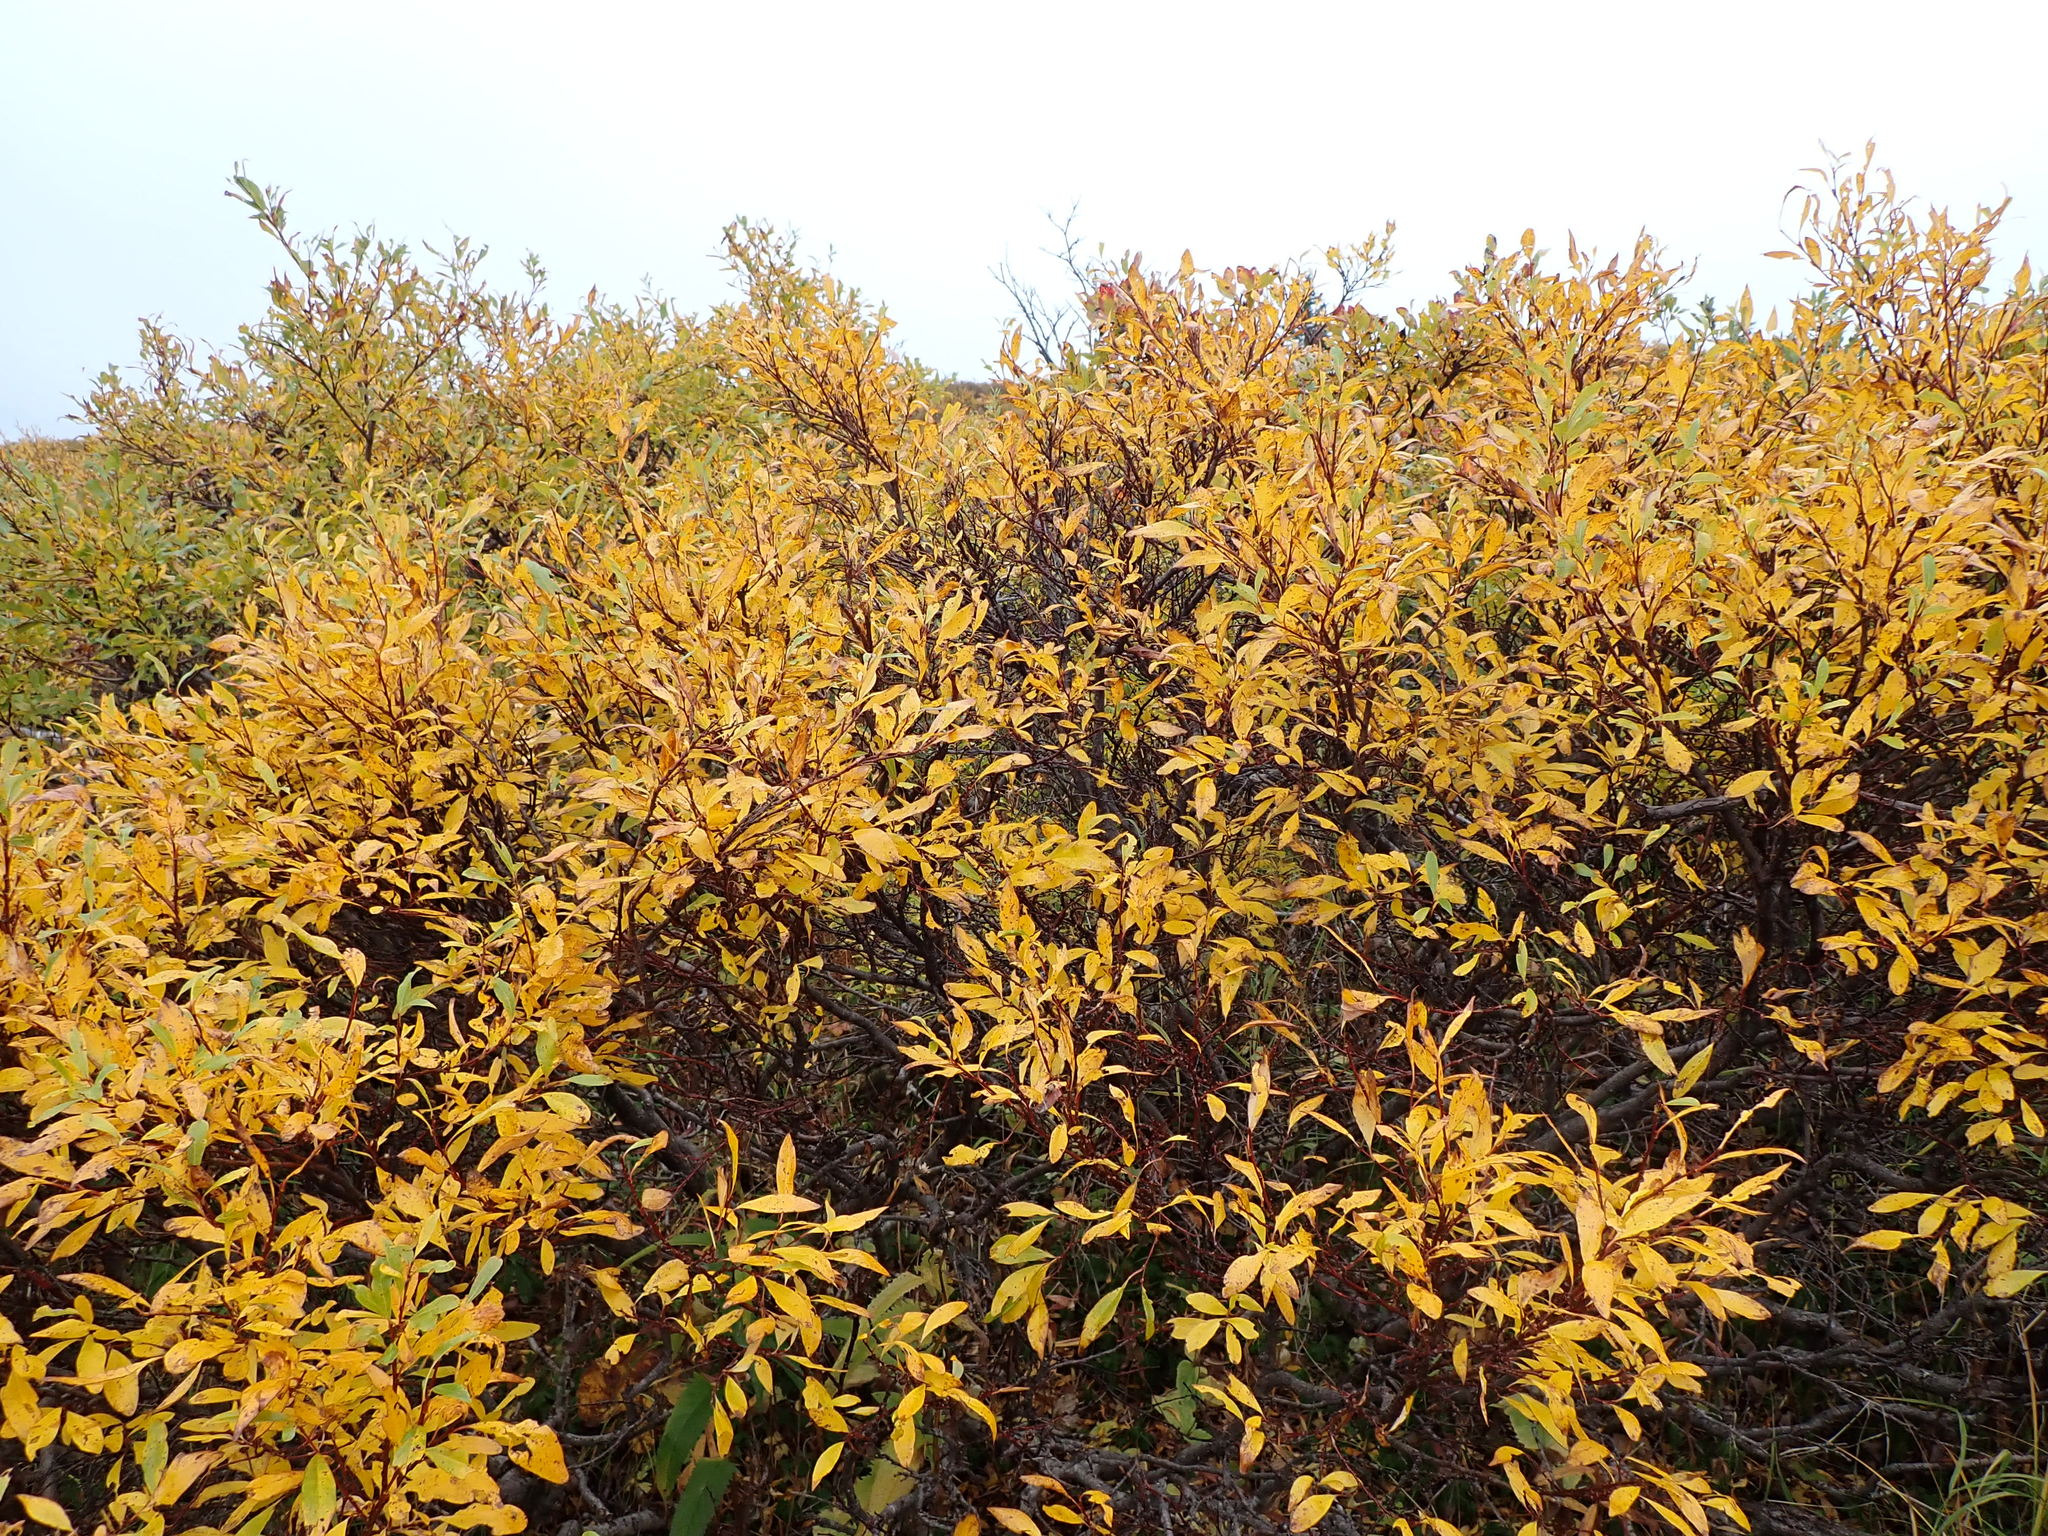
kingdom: Plantae
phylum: Tracheophyta
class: Magnoliopsida
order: Malpighiales
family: Salicaceae
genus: Salix
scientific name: Salix pulchra
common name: Diamond-leaved willow
